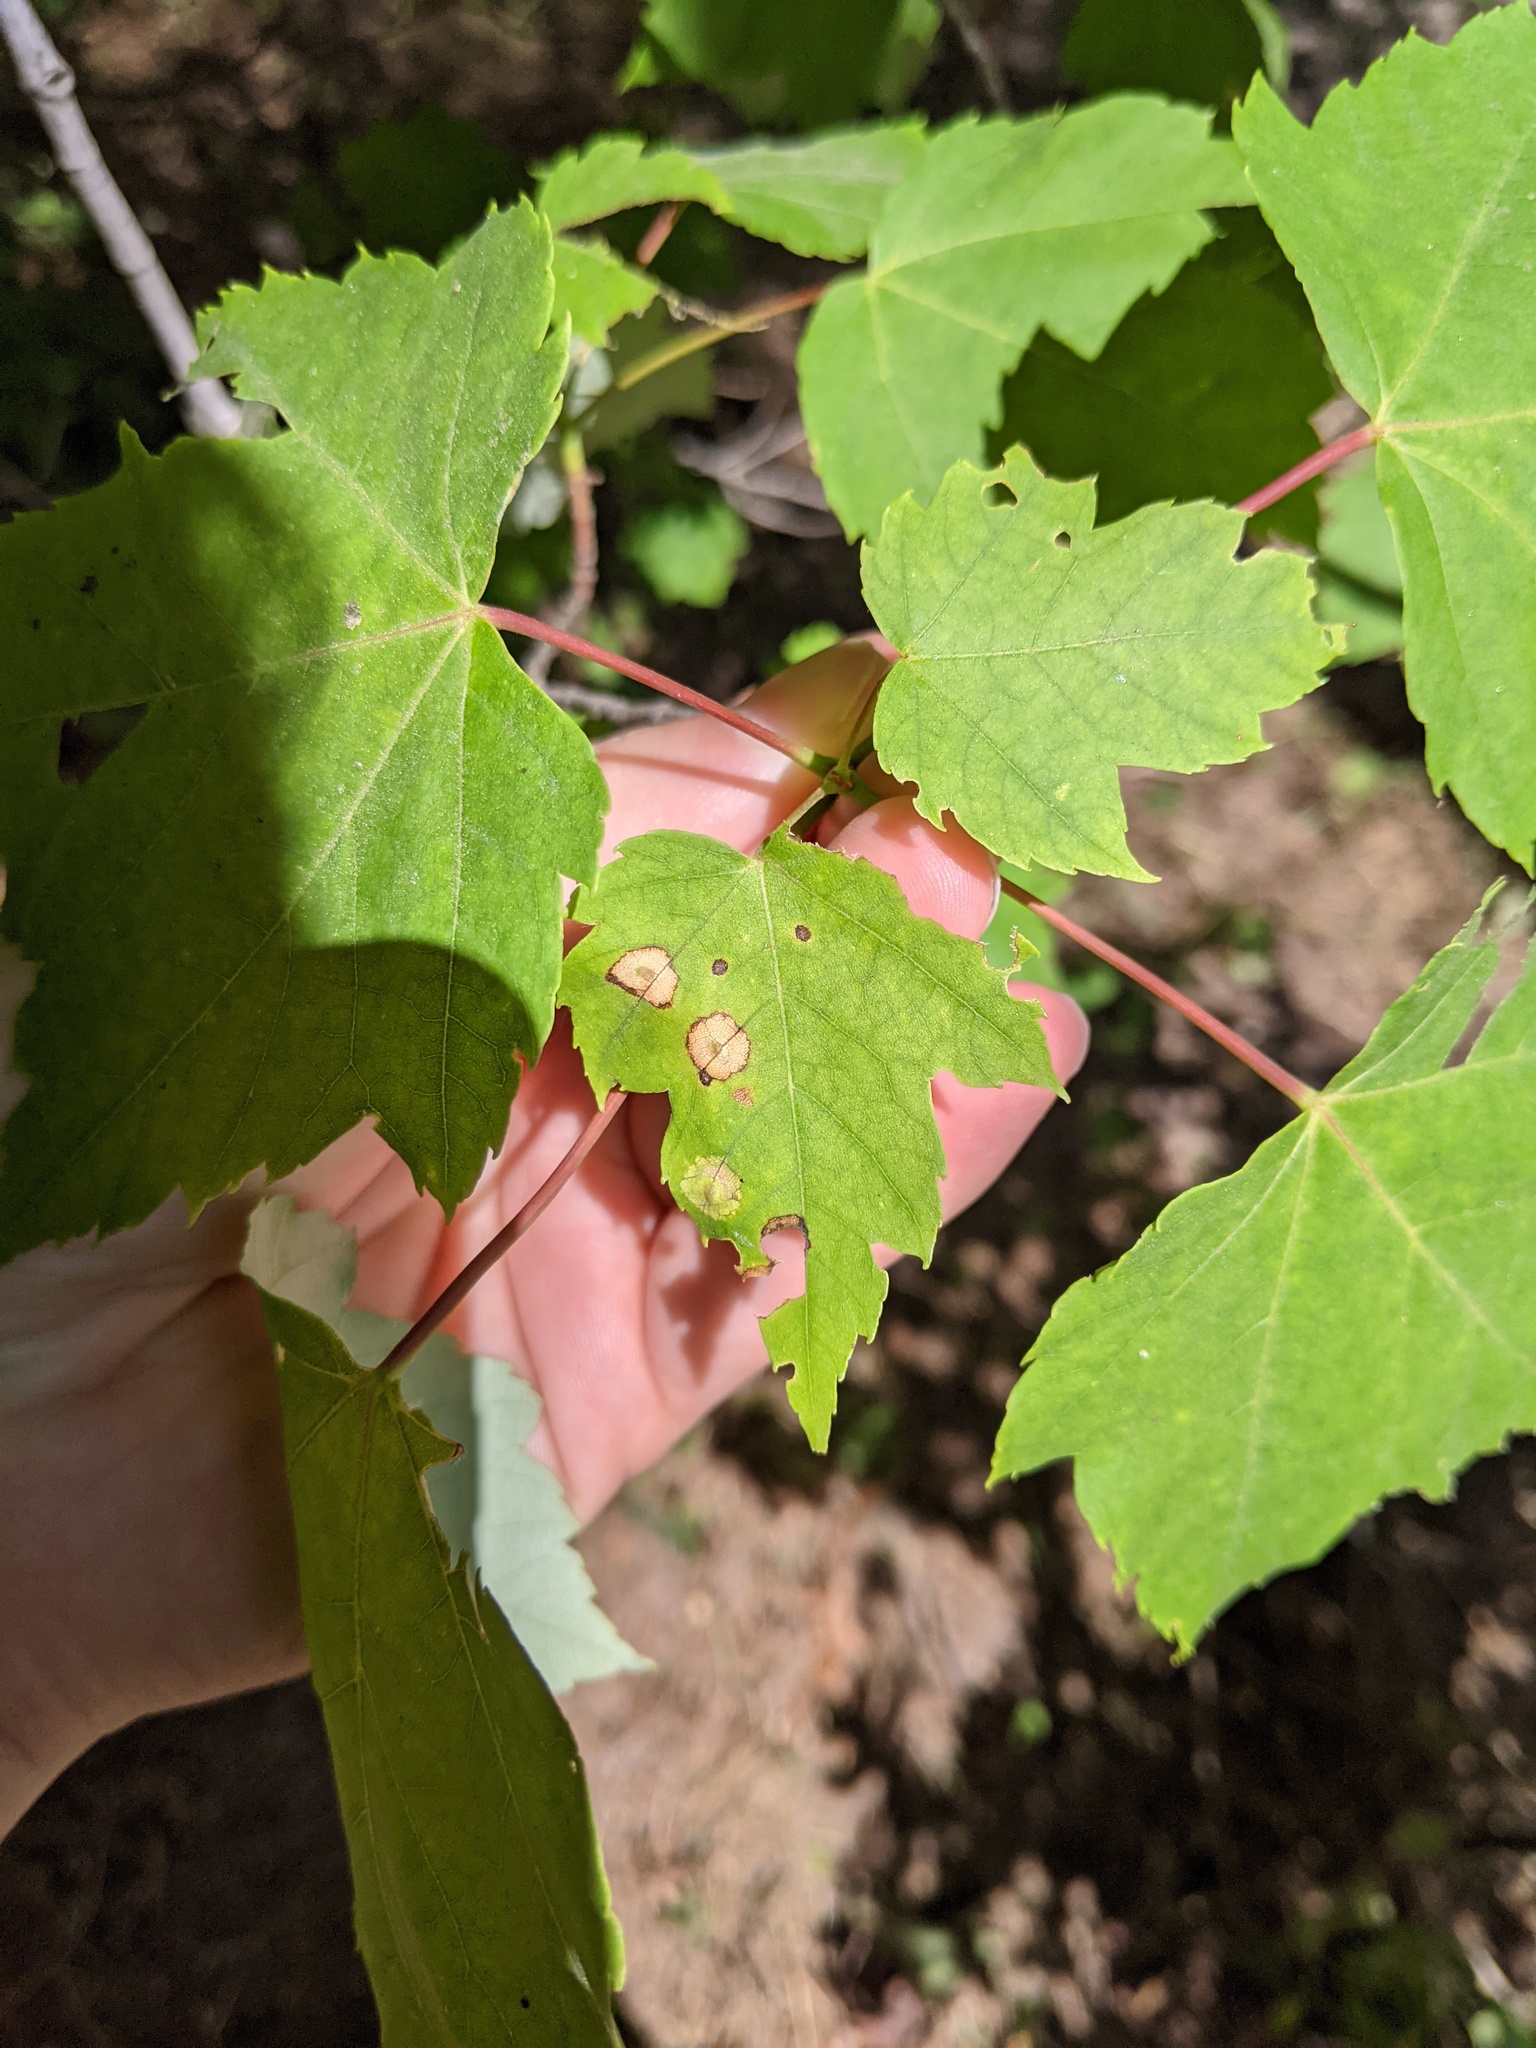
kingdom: Animalia
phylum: Arthropoda
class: Insecta
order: Diptera
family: Cecidomyiidae
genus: Acericecis
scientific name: Acericecis ocellaris
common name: Ocellate gall midge
